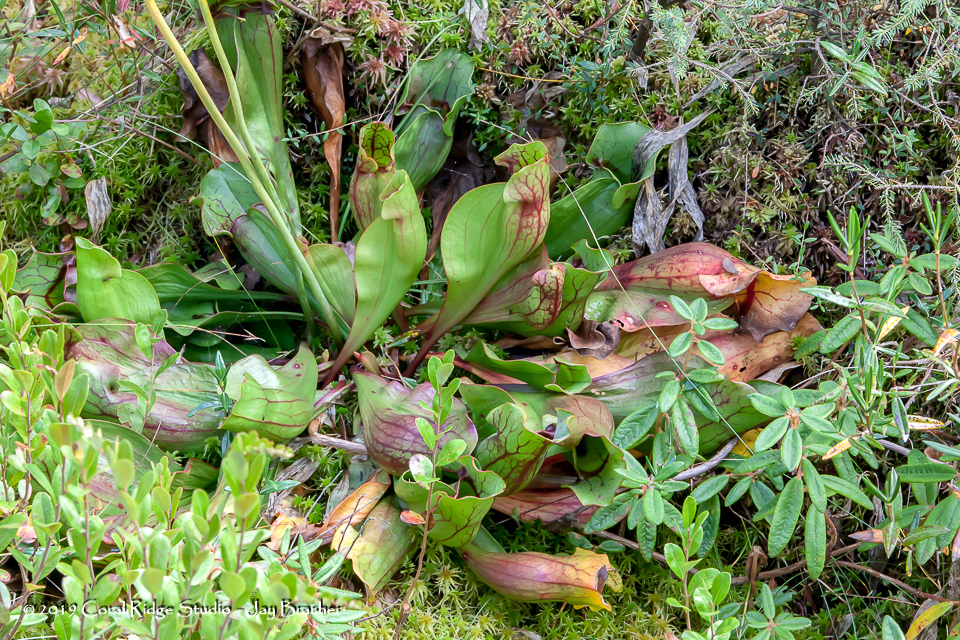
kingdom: Plantae
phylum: Tracheophyta
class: Magnoliopsida
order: Ericales
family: Sarraceniaceae
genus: Sarracenia
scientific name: Sarracenia purpurea
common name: Pitcherplant
